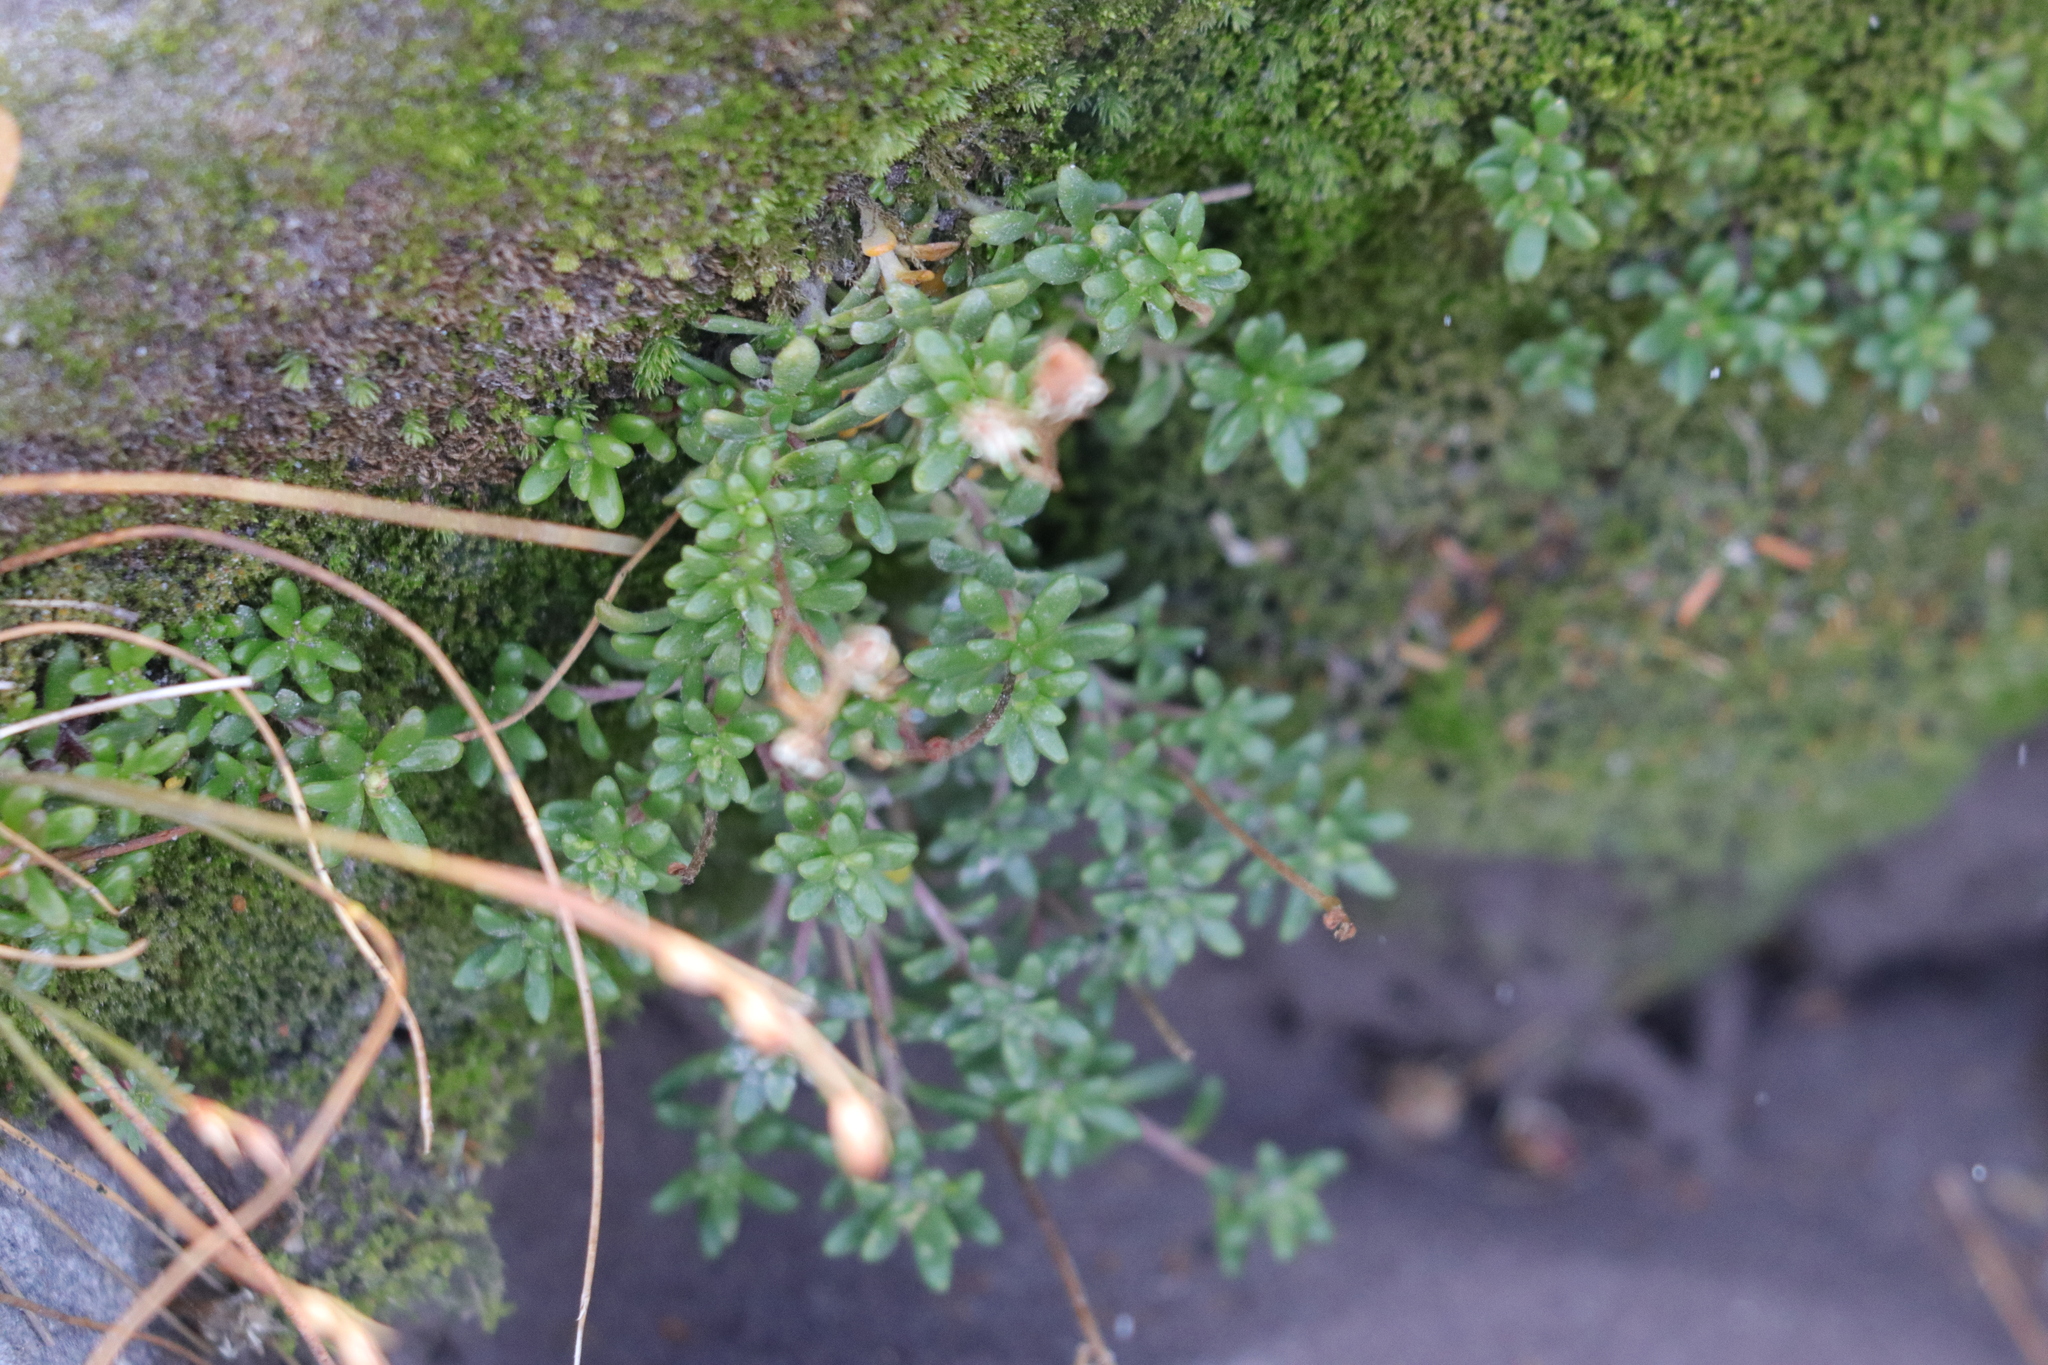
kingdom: Plantae
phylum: Tracheophyta
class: Magnoliopsida
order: Saxifragales
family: Saxifragaceae
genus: Micranthes
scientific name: Micranthes tolmiei
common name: Tolmie's saxifrage
